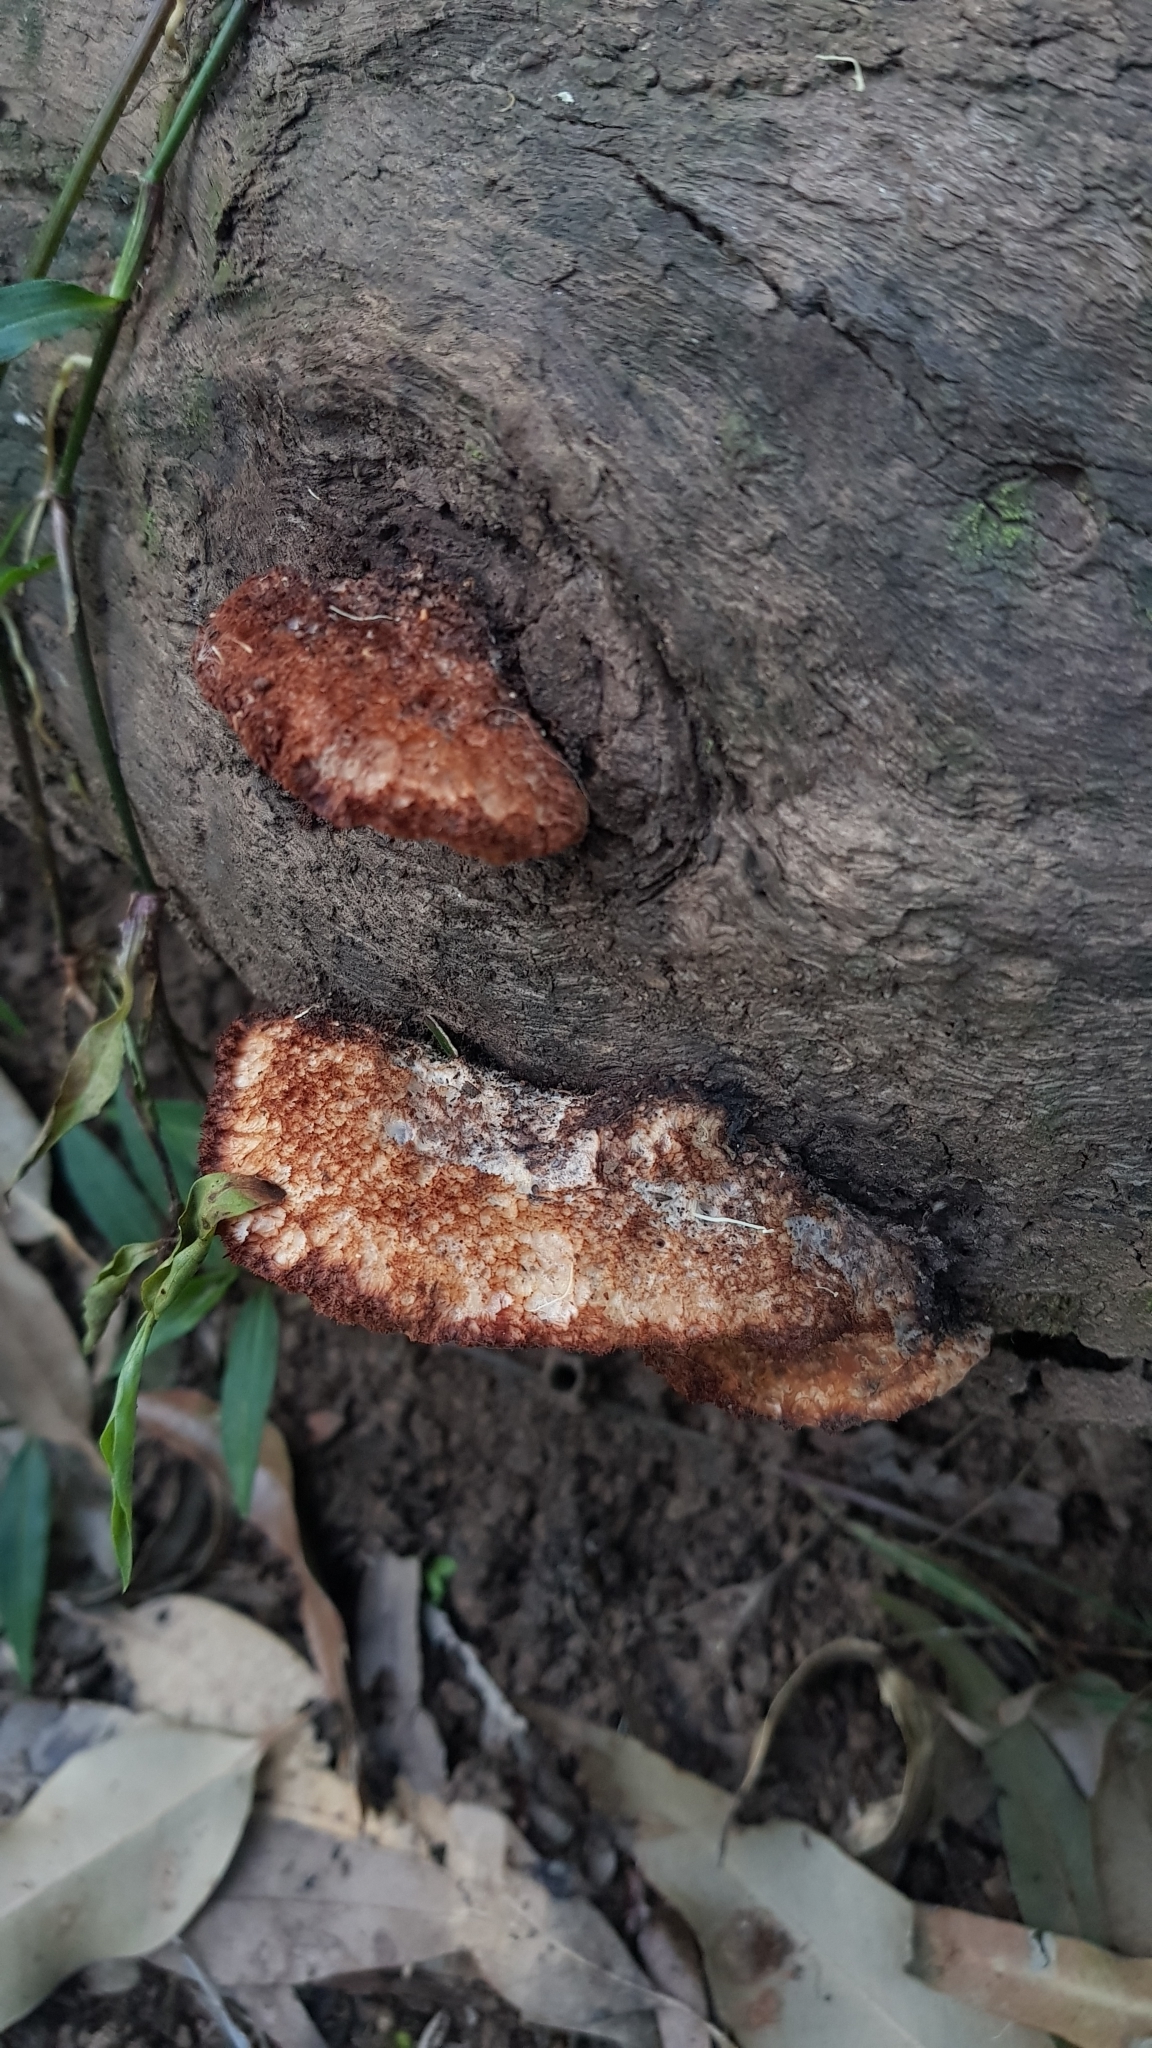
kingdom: Fungi
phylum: Basidiomycota
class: Agaricomycetes
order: Polyporales
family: Dacryobolaceae
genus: Oligoporus
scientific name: Oligoporus pelliculosus
